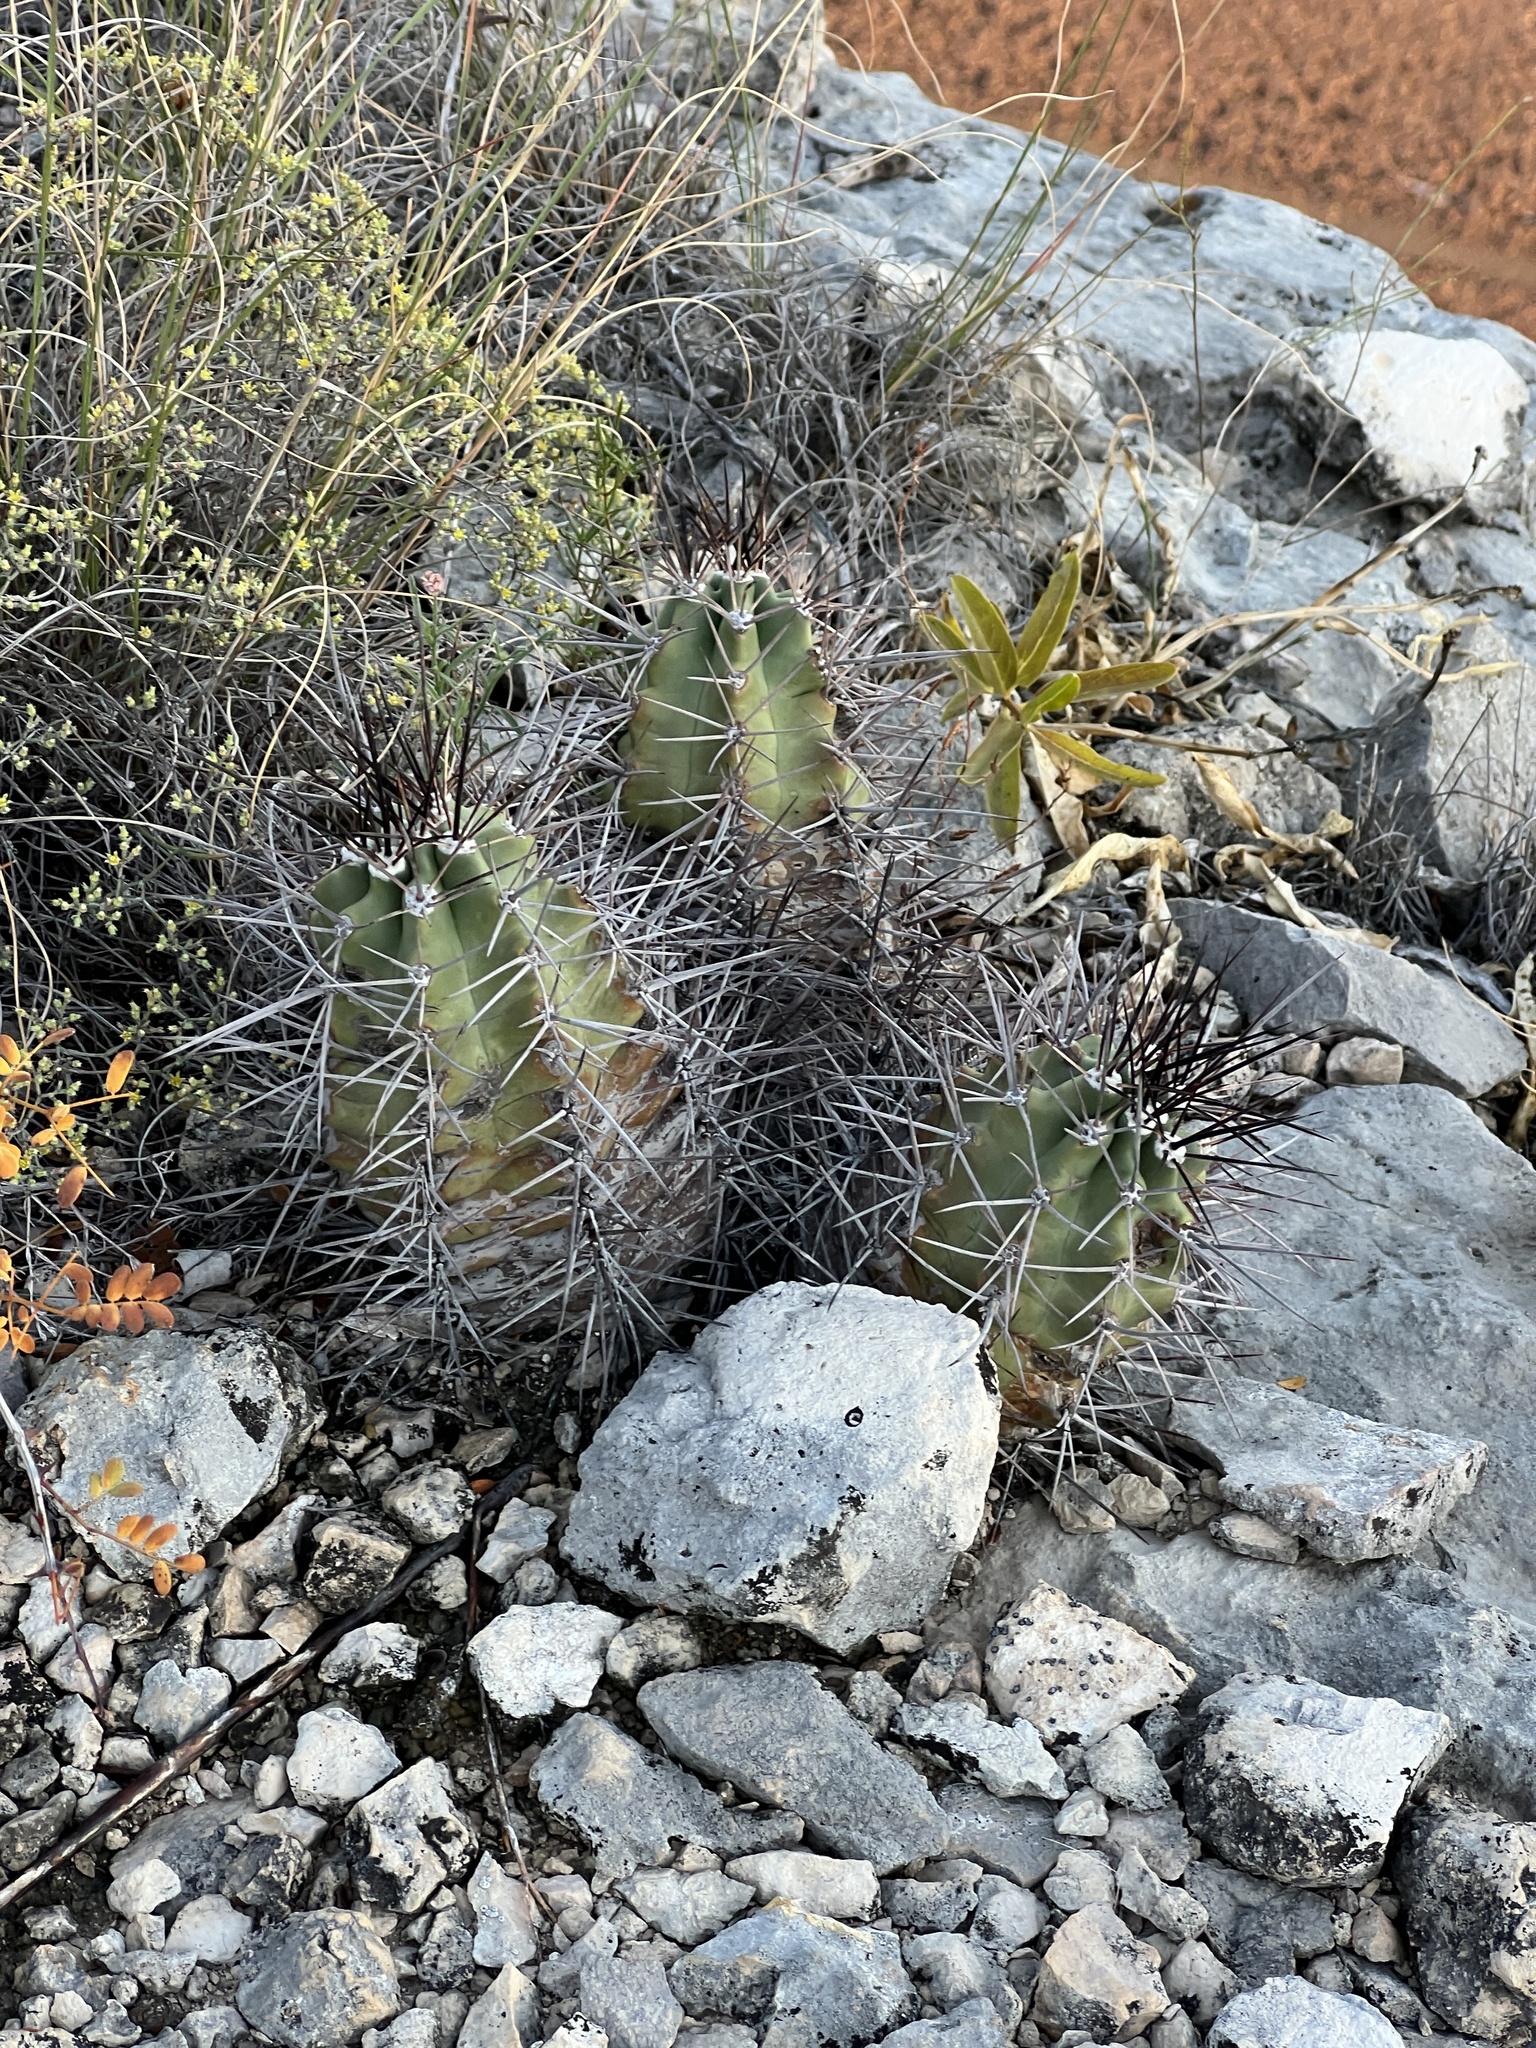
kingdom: Plantae
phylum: Tracheophyta
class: Magnoliopsida
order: Caryophyllales
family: Cactaceae
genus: Echinocereus
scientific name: Echinocereus coccineus
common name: Scarlet hedgehog cactus
